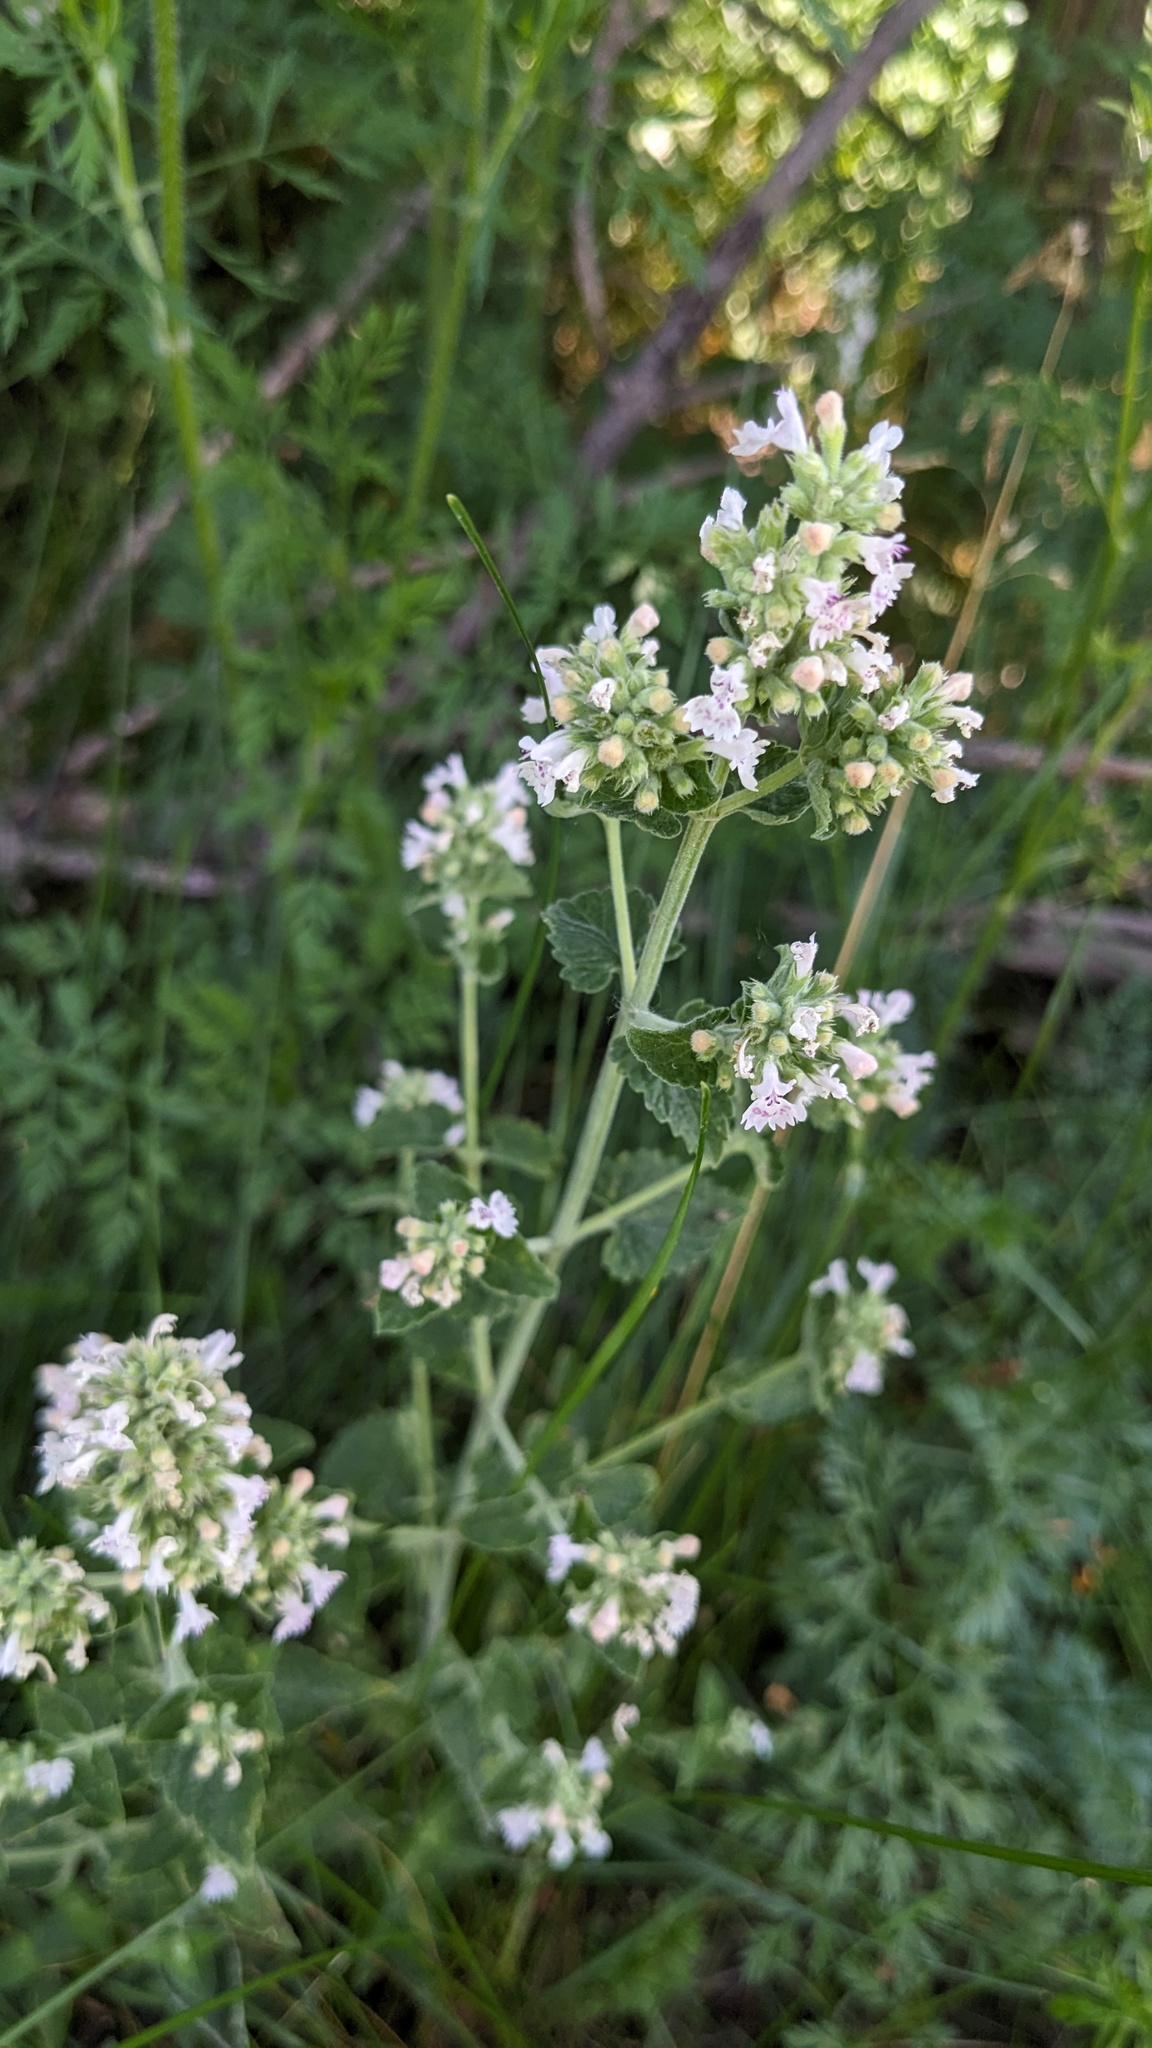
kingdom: Plantae
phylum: Tracheophyta
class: Magnoliopsida
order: Lamiales
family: Lamiaceae
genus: Nepeta
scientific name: Nepeta cataria
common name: Catnip
